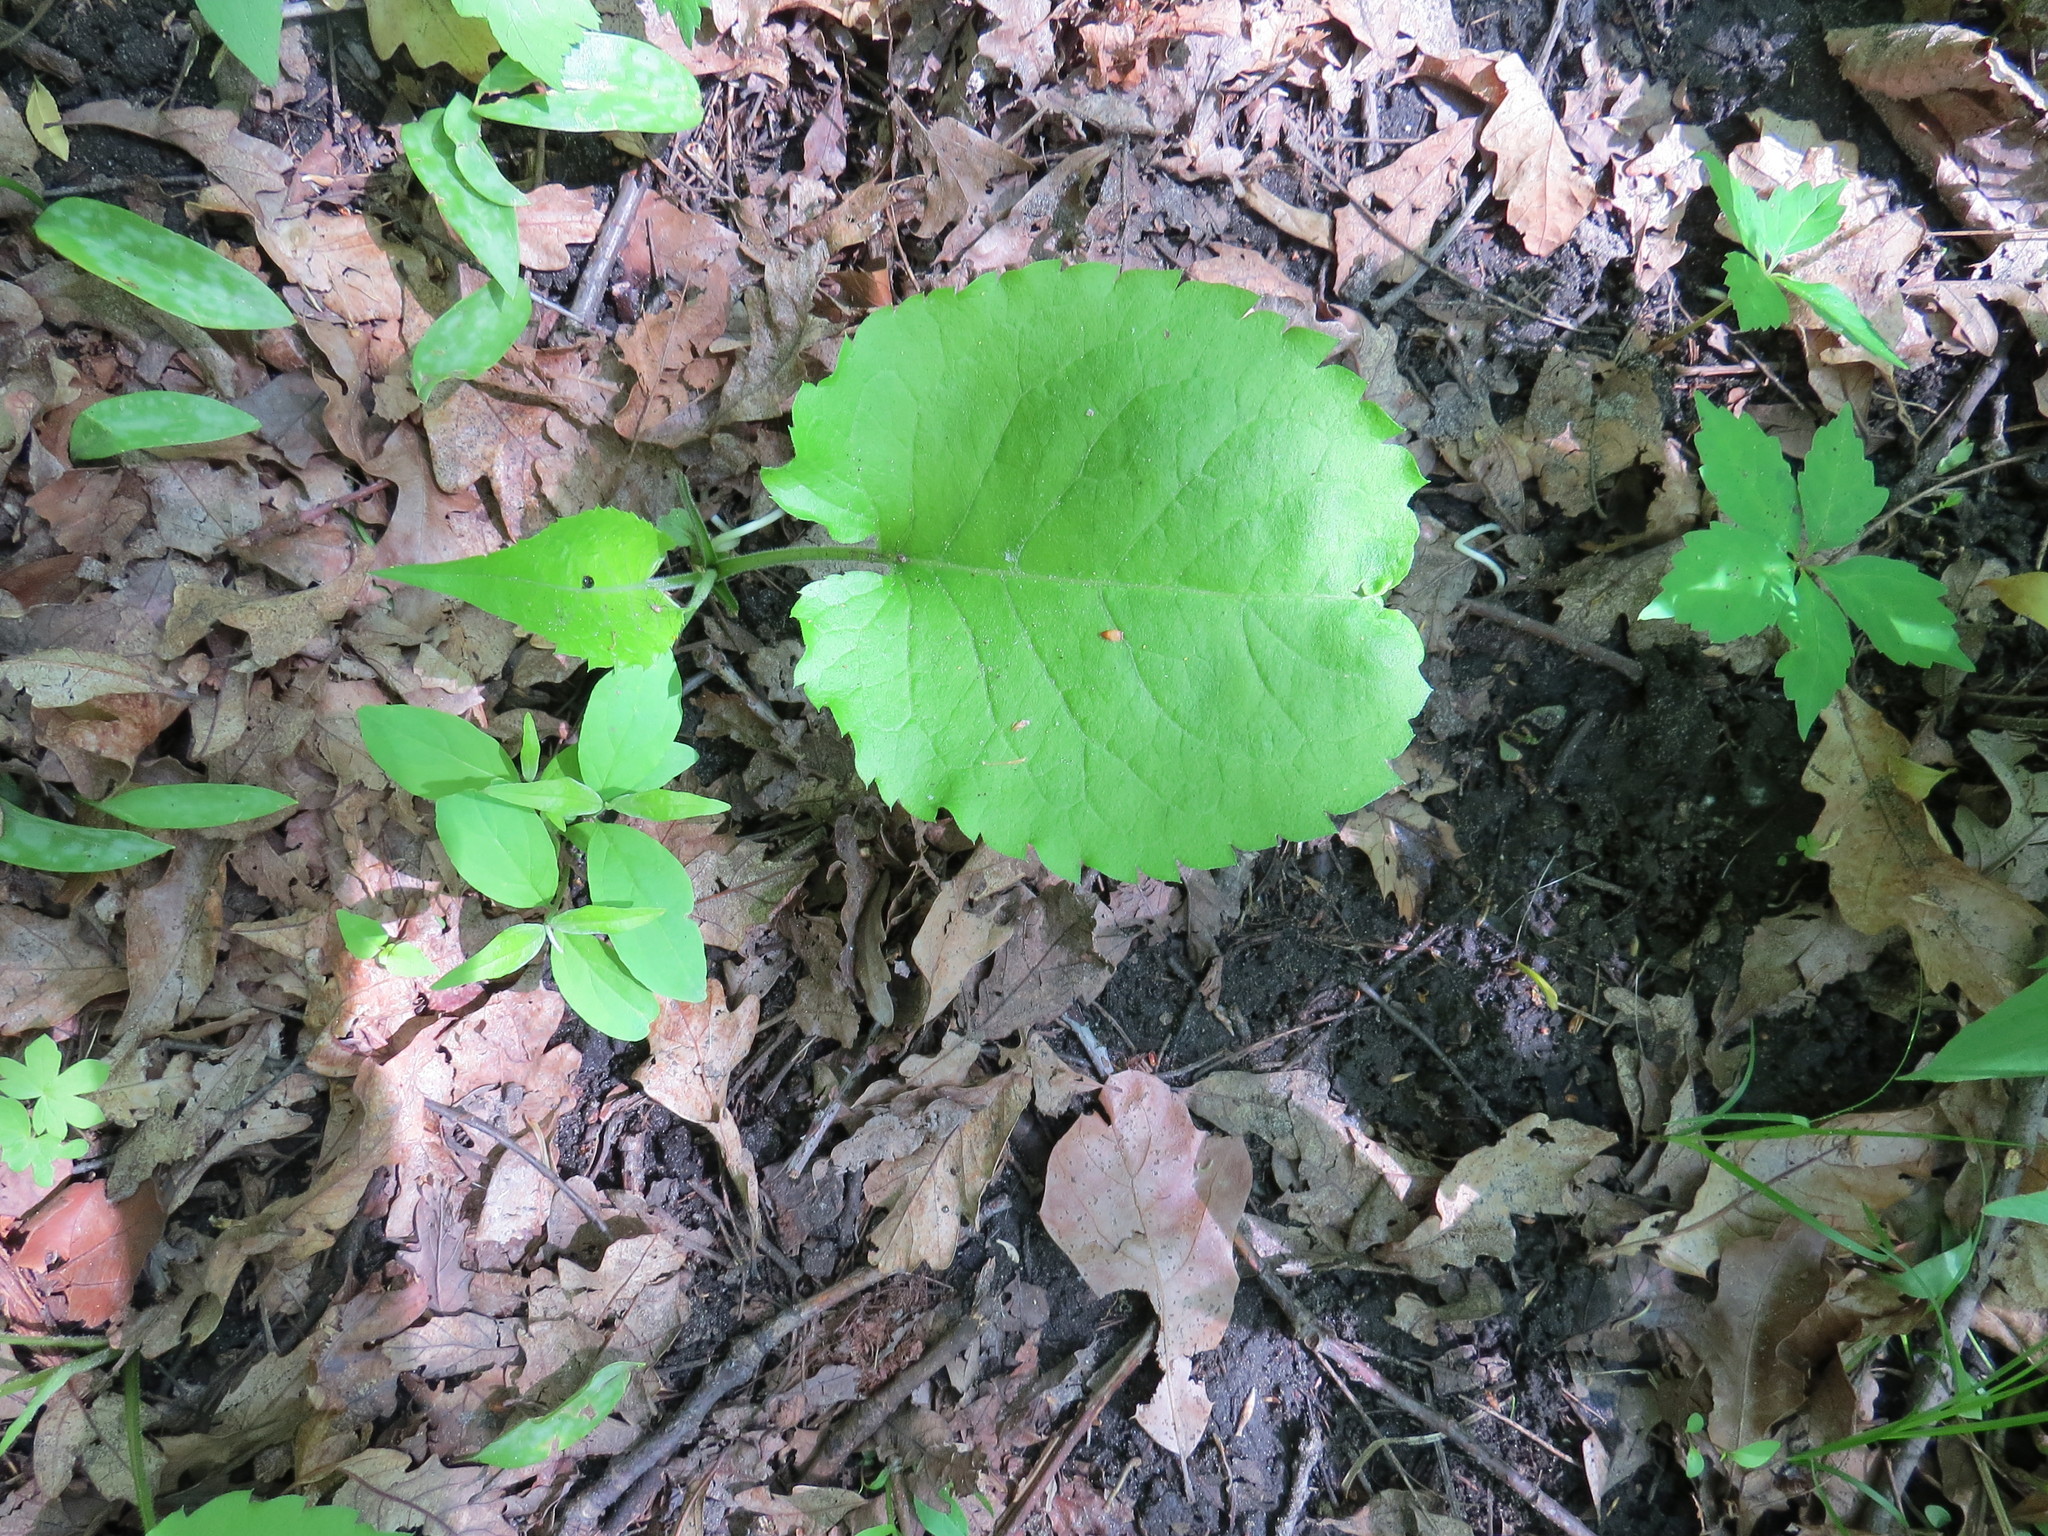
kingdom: Plantae
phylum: Tracheophyta
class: Magnoliopsida
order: Asterales
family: Asteraceae
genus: Eurybia
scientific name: Eurybia macrophylla
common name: Big-leaved aster
